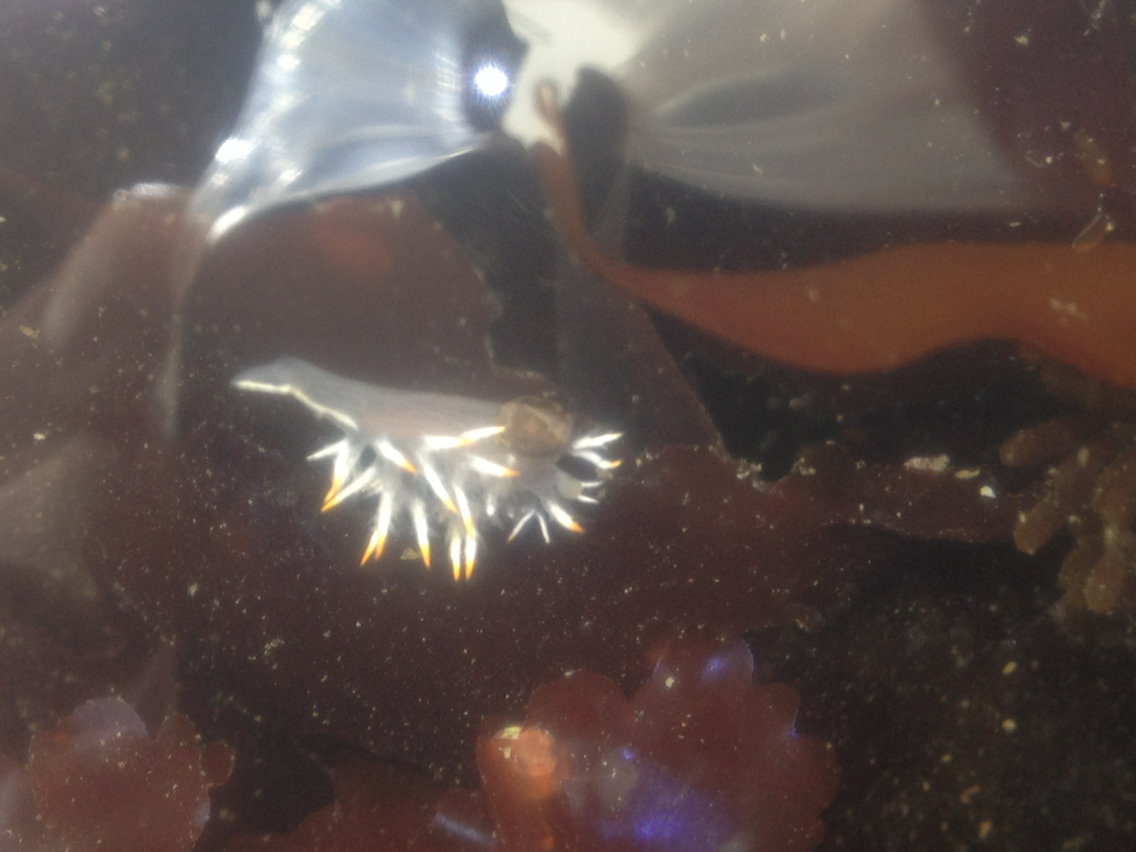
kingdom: Animalia
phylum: Mollusca
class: Gastropoda
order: Nudibranchia
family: Dendronotidae
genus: Dendronotus
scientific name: Dendronotus albus
